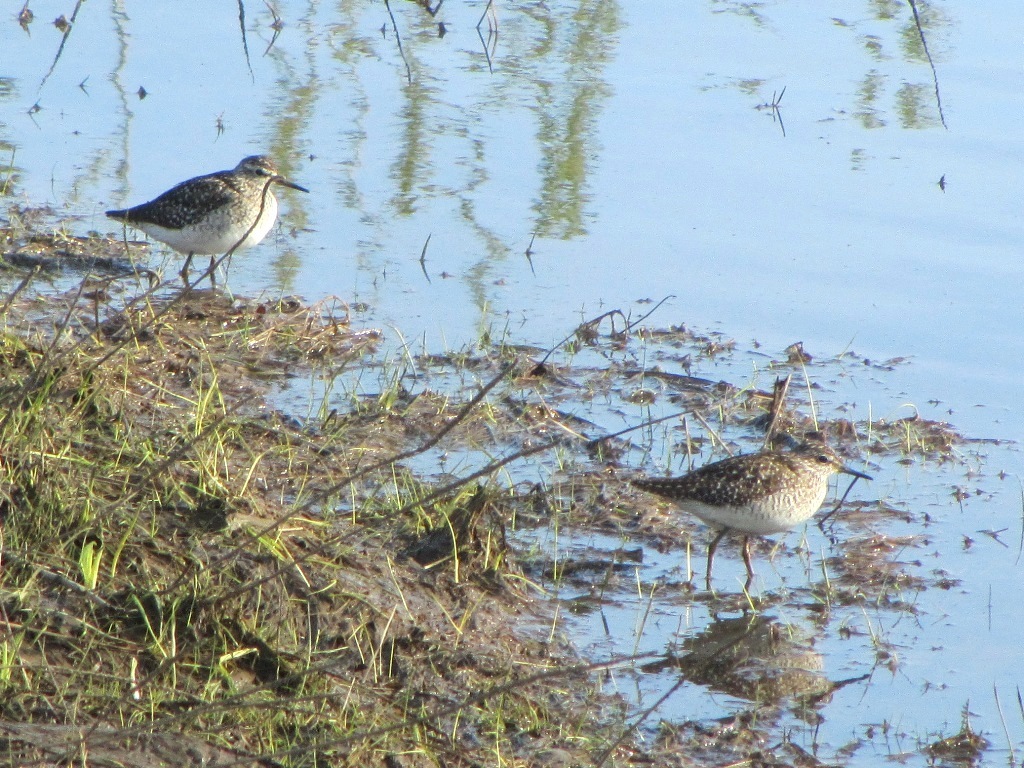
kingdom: Animalia
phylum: Chordata
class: Aves
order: Charadriiformes
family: Scolopacidae
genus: Tringa
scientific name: Tringa glareola
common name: Wood sandpiper
